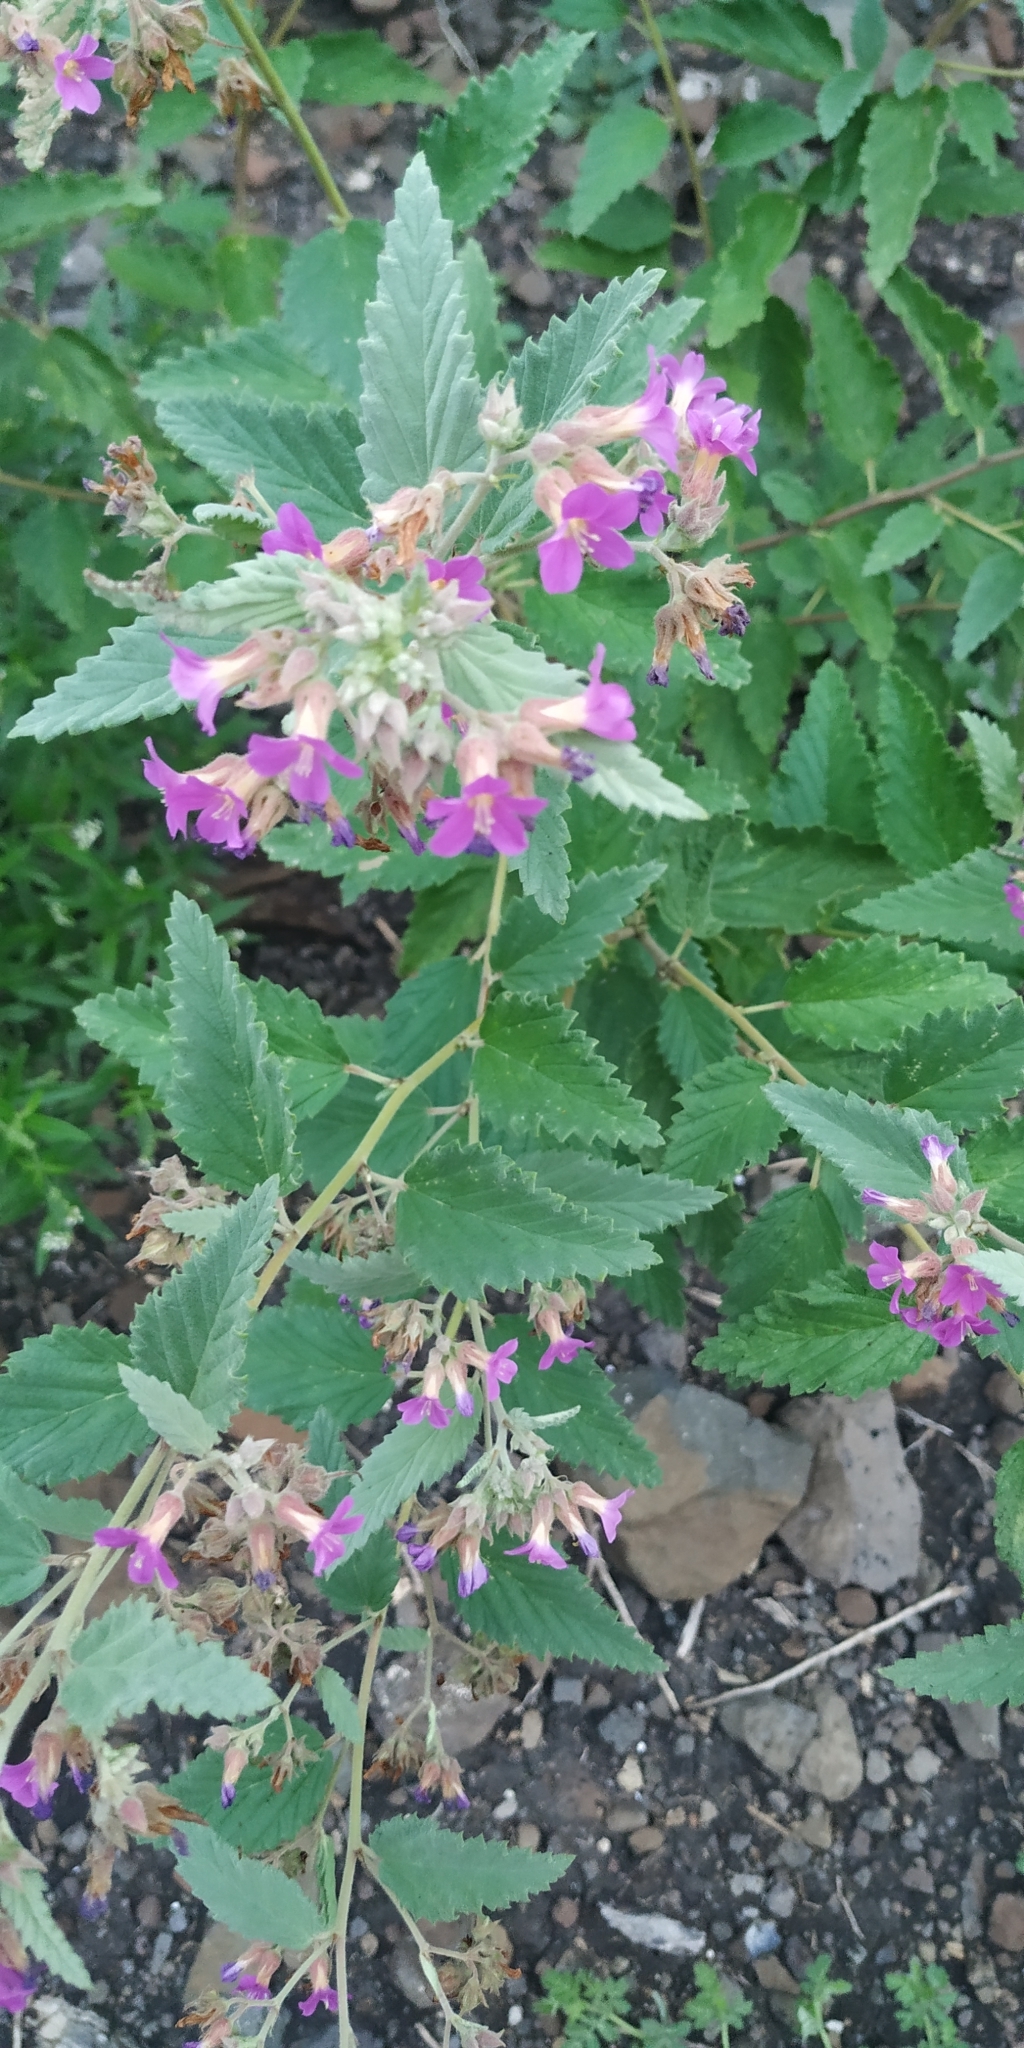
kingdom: Plantae
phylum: Tracheophyta
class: Magnoliopsida
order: Malvales
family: Malvaceae
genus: Melochia
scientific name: Melochia tomentosa
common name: Black torch
